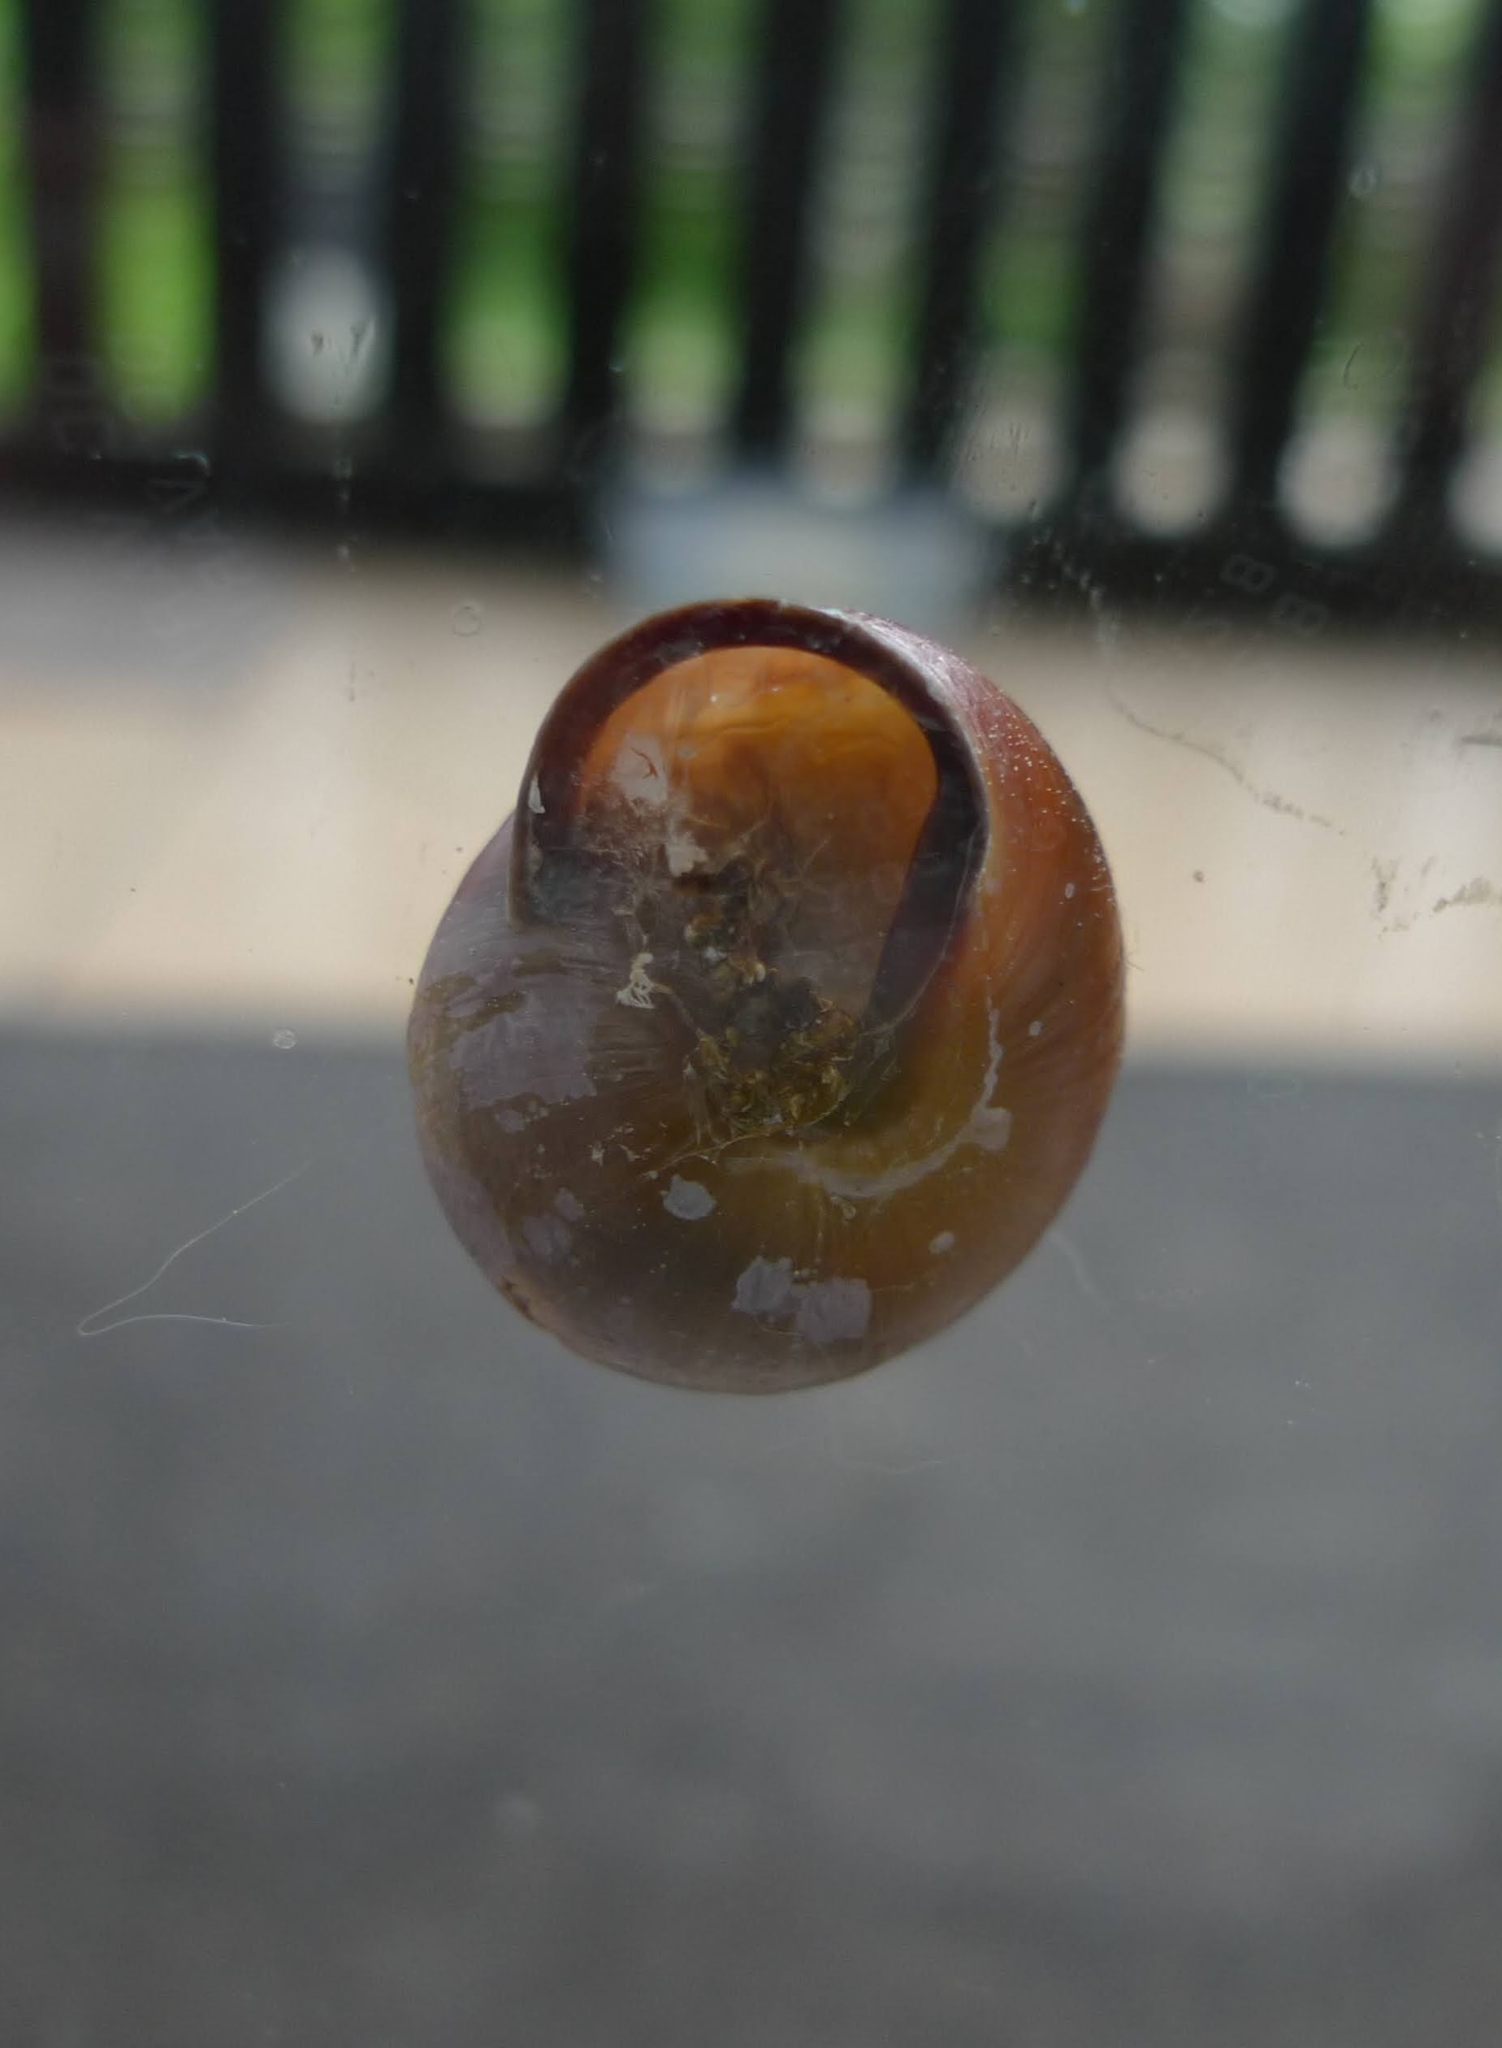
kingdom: Animalia
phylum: Mollusca
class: Gastropoda
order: Stylommatophora
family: Helicidae
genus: Cepaea
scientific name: Cepaea nemoralis
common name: Grovesnail
